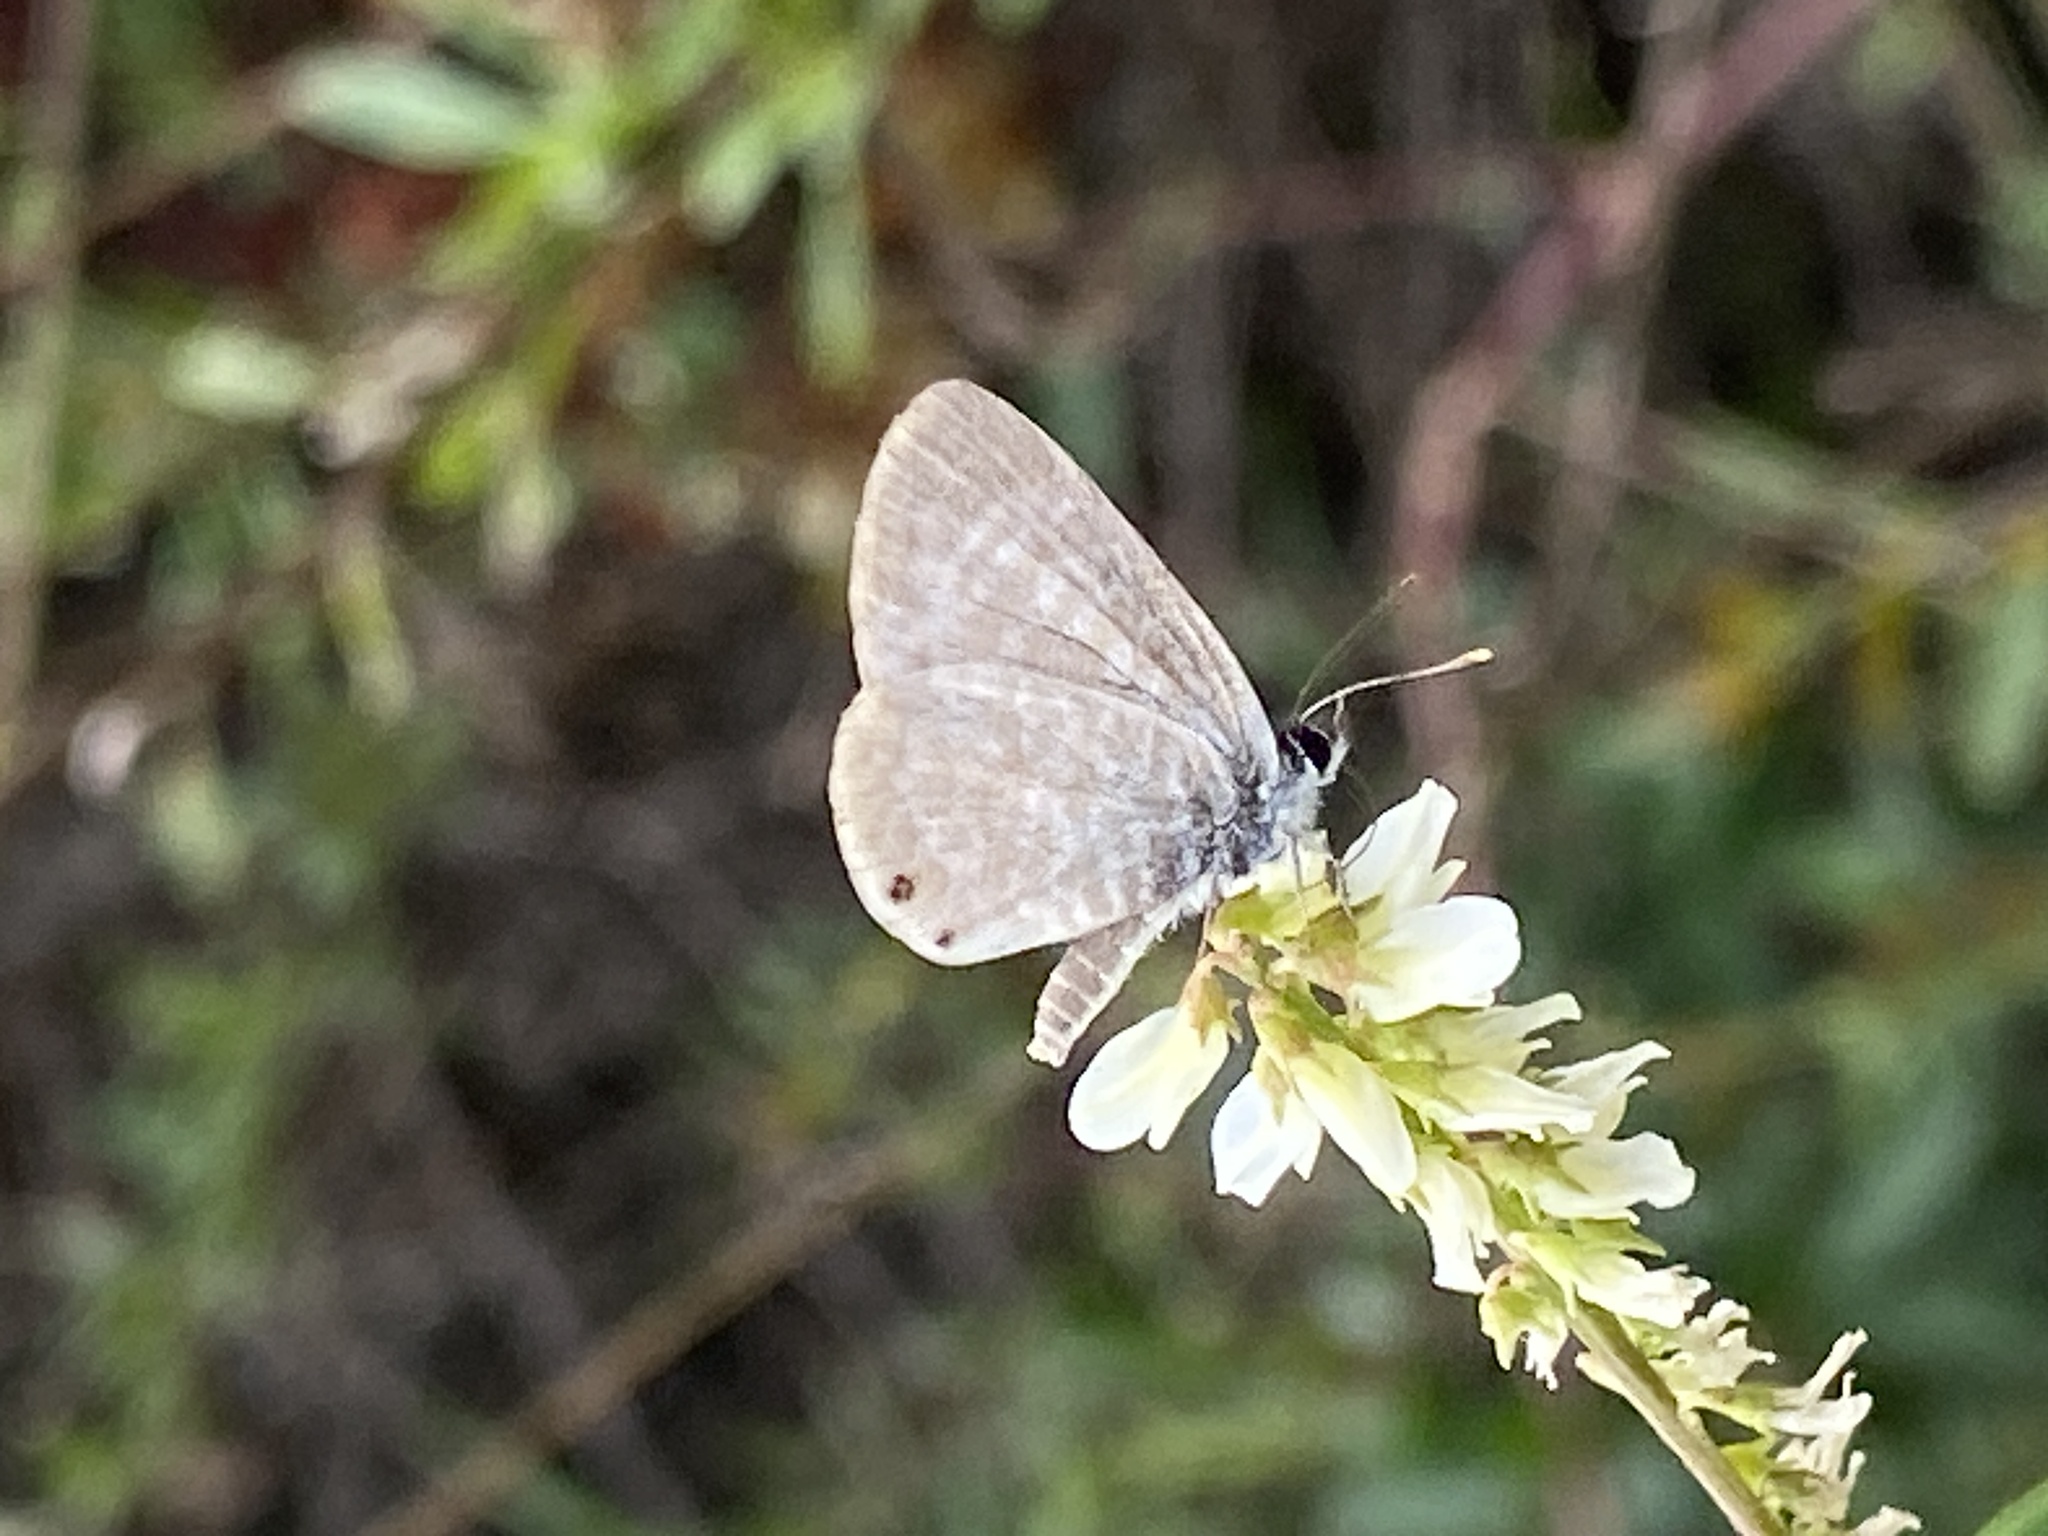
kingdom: Animalia
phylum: Arthropoda
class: Insecta
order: Lepidoptera
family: Lycaenidae
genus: Leptotes
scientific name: Leptotes marina
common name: Marine blue
